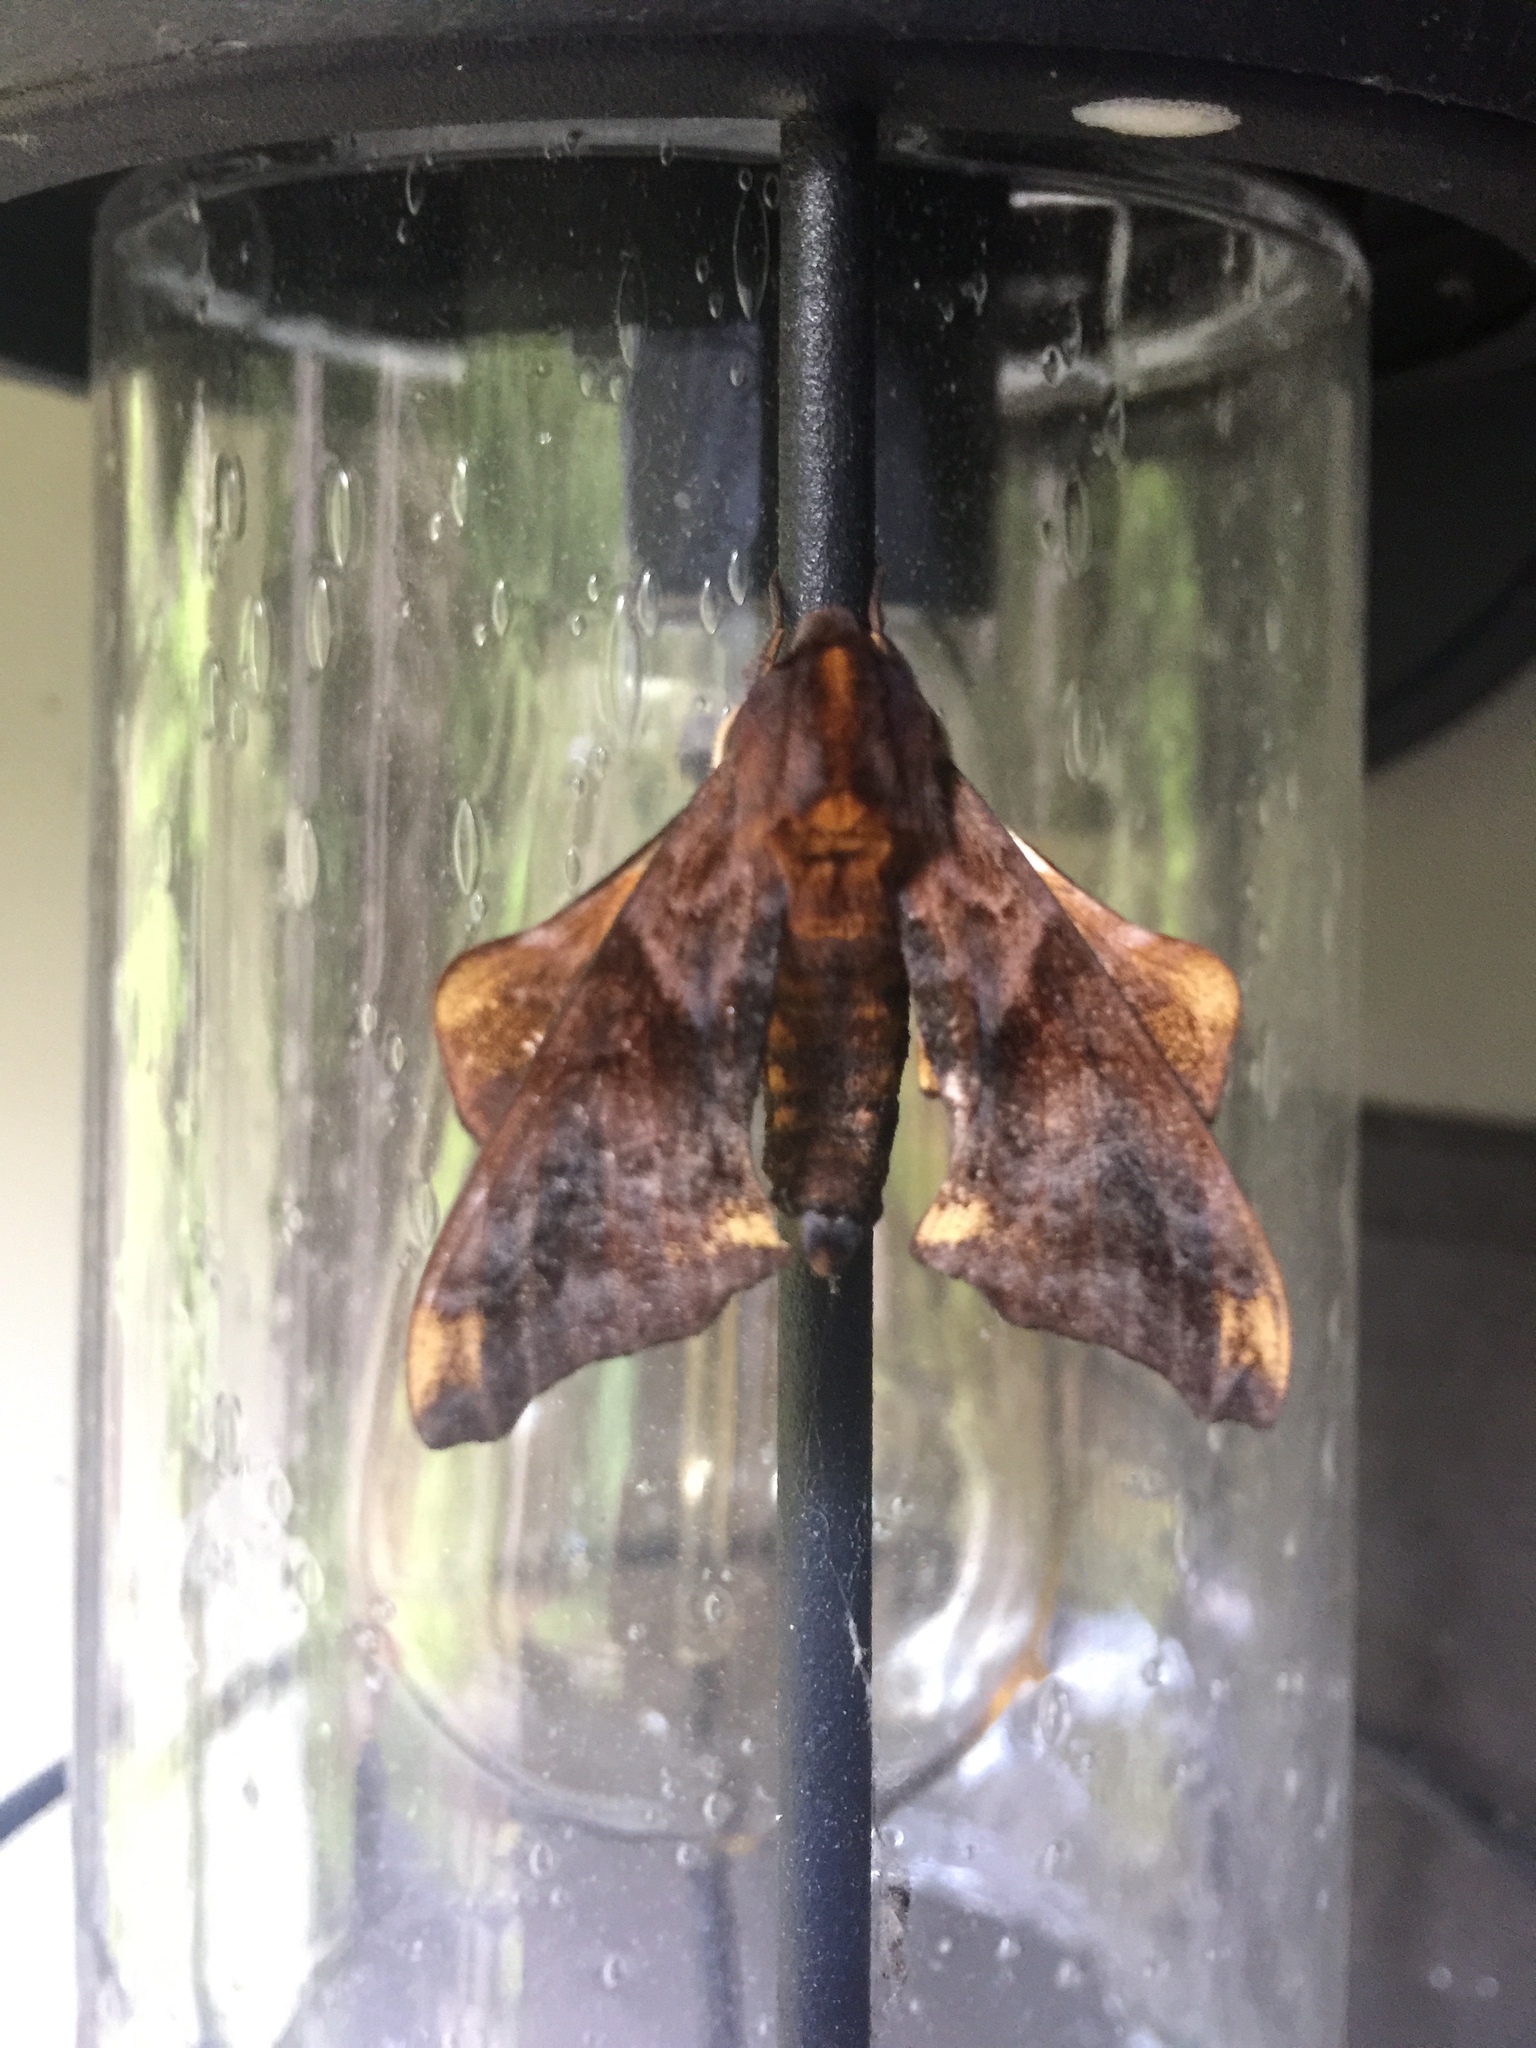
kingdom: Animalia
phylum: Arthropoda
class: Insecta
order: Lepidoptera
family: Sphingidae
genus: Paonias
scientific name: Paonias myops
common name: Small-eyed sphinx
